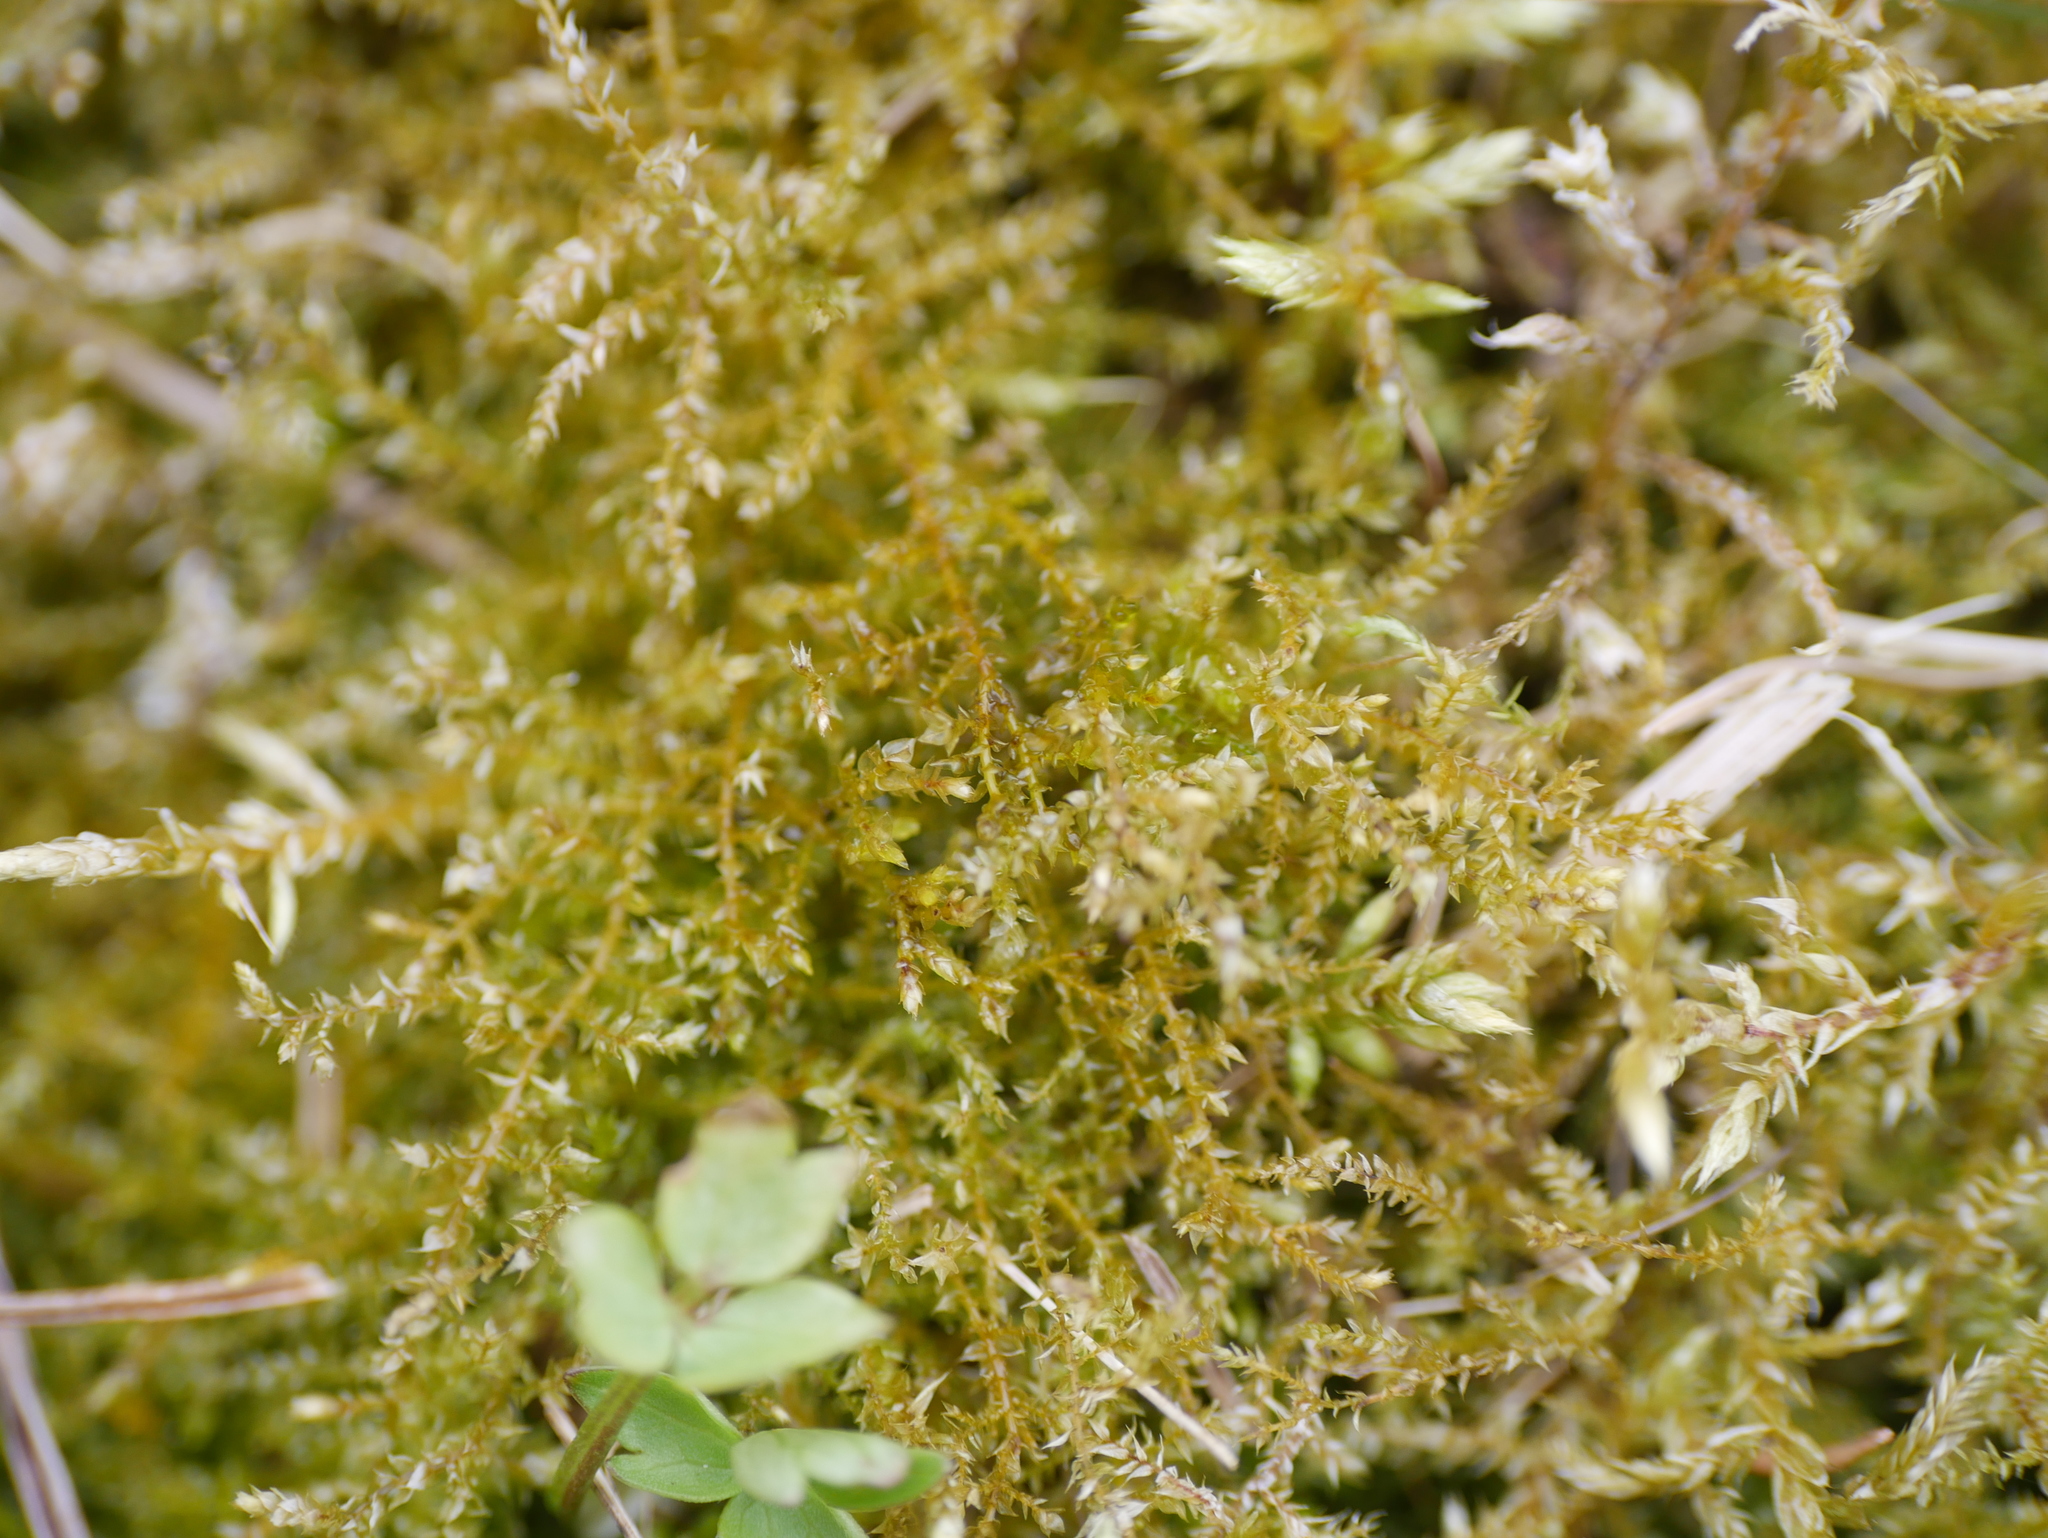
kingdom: Plantae
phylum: Bryophyta
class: Bryopsida
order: Hypnales
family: Brachytheciaceae
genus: Oxyrrhynchium
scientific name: Oxyrrhynchium hians
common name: Spreading beaked moss
